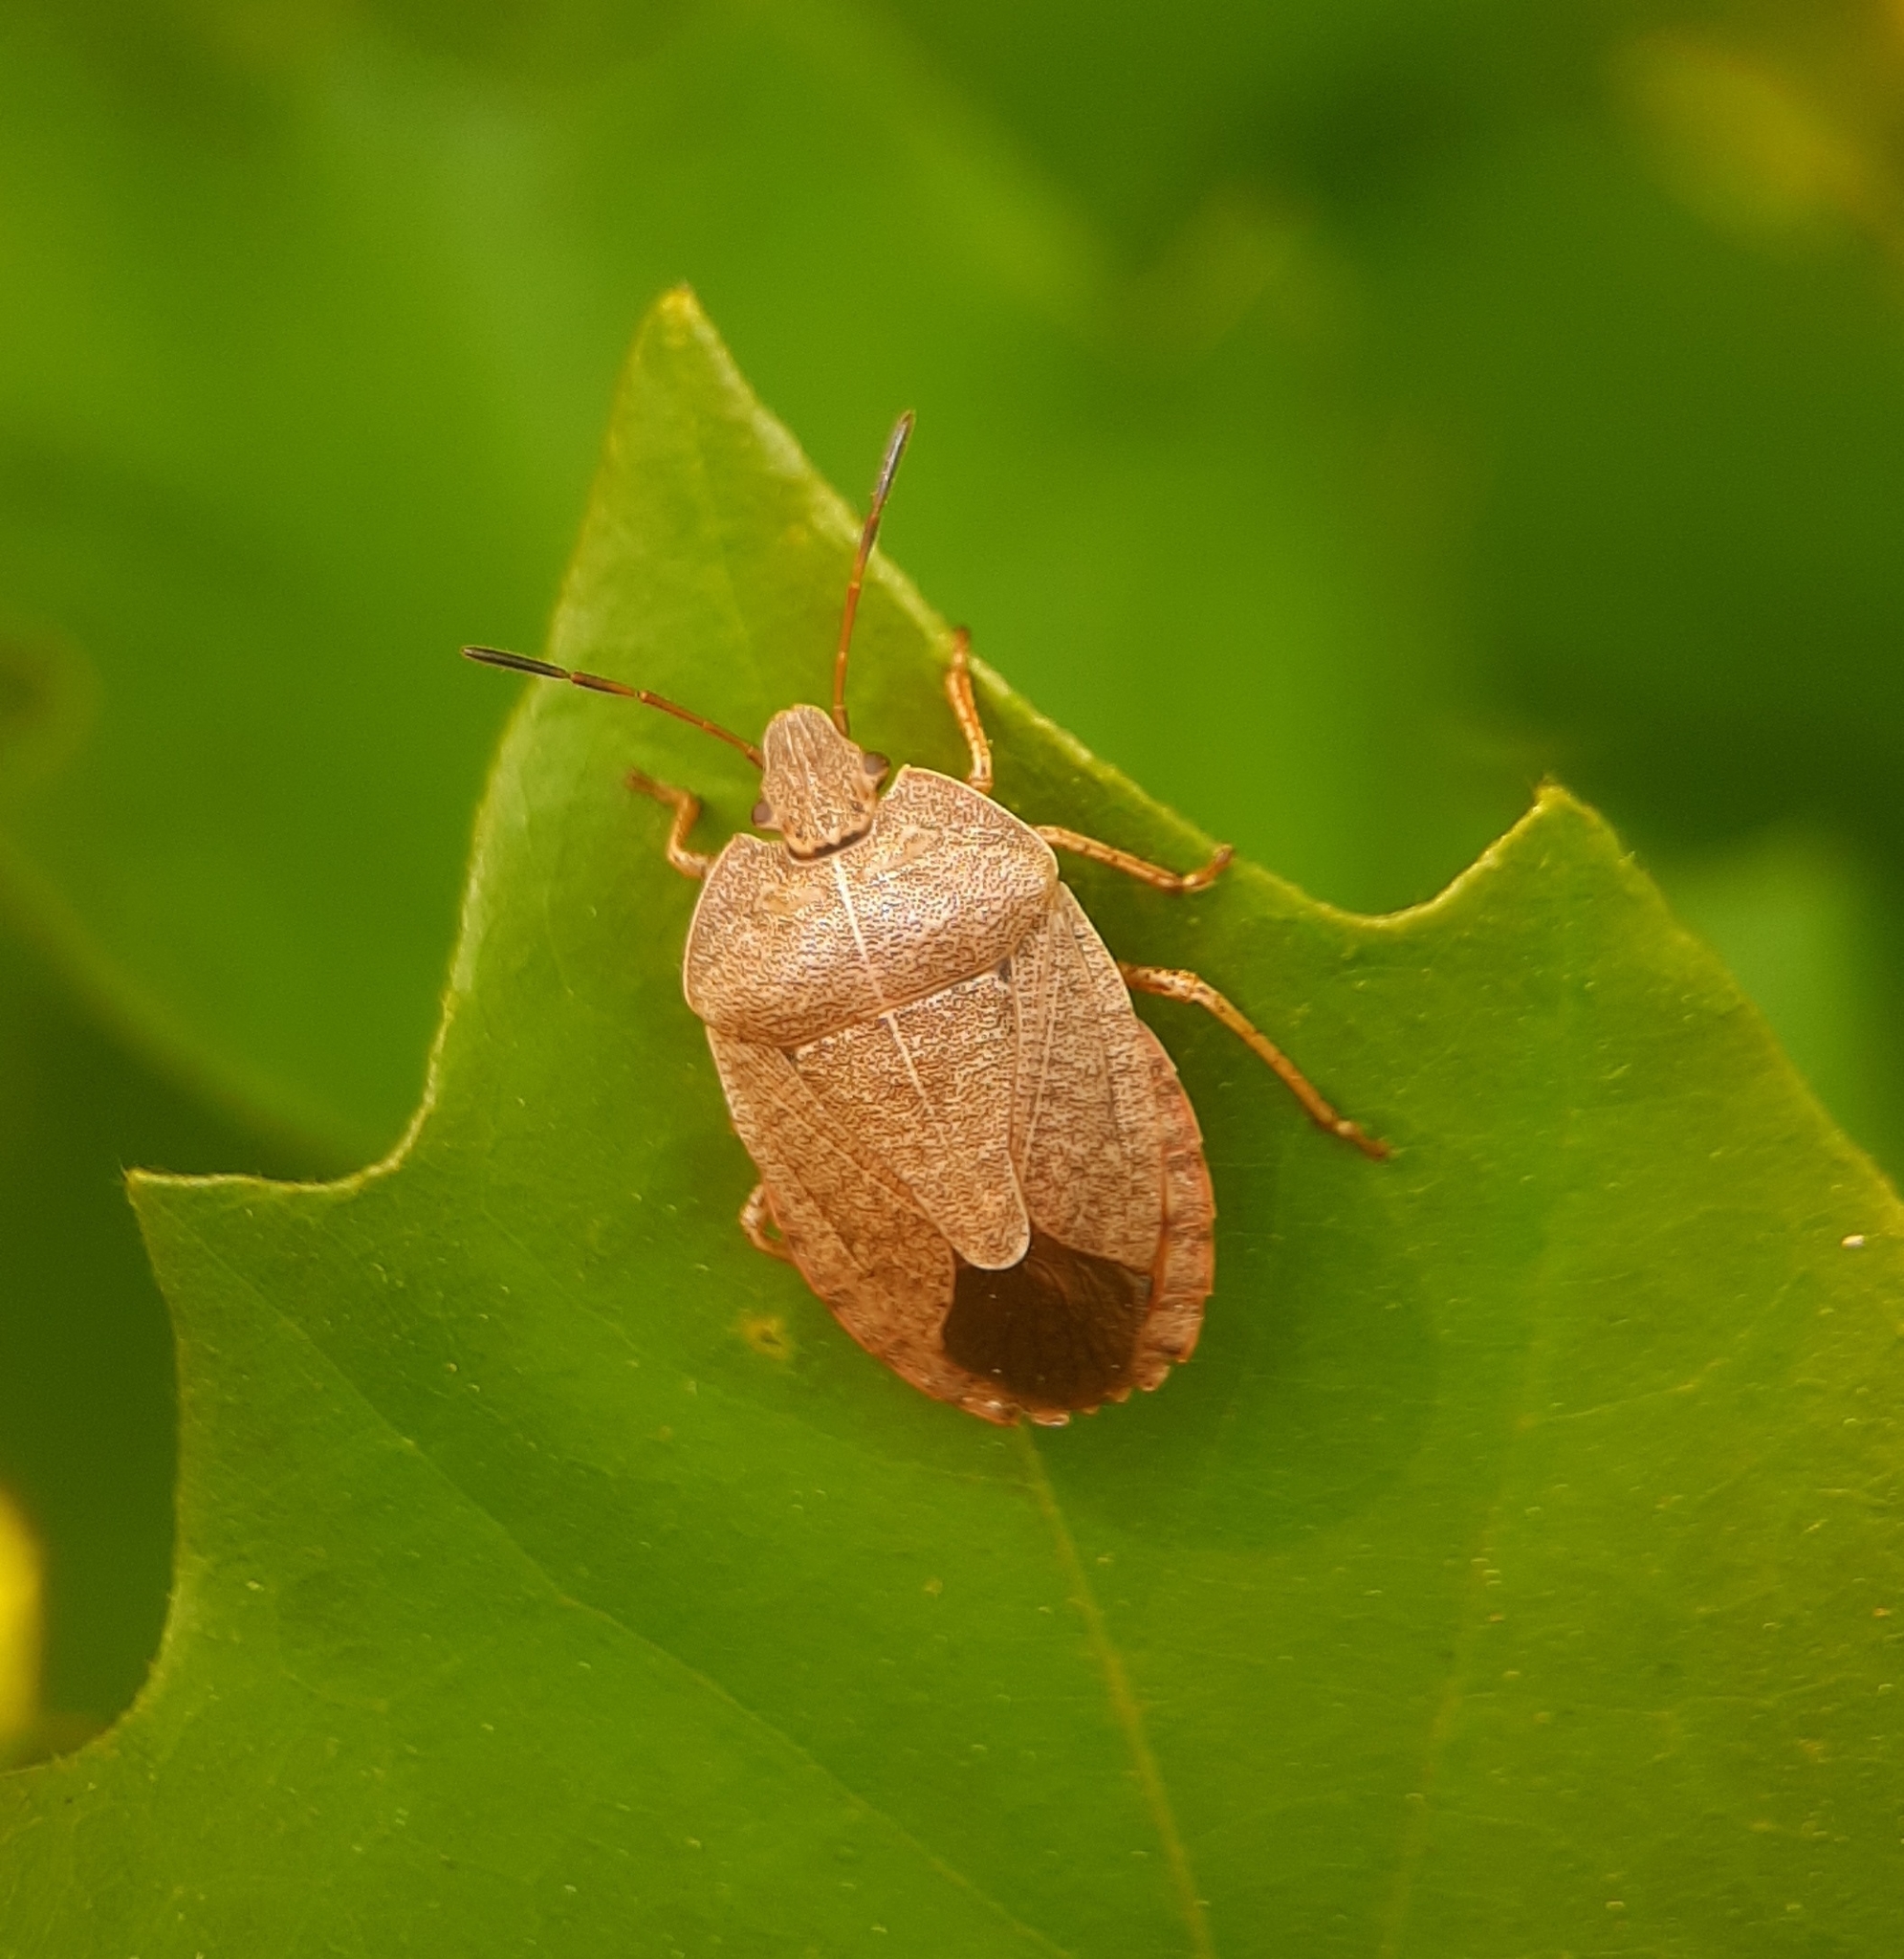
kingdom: Animalia
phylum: Arthropoda
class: Insecta
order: Hemiptera
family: Pentatomidae
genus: Menecles
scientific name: Menecles insertus
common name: Elf shoe stink bug
